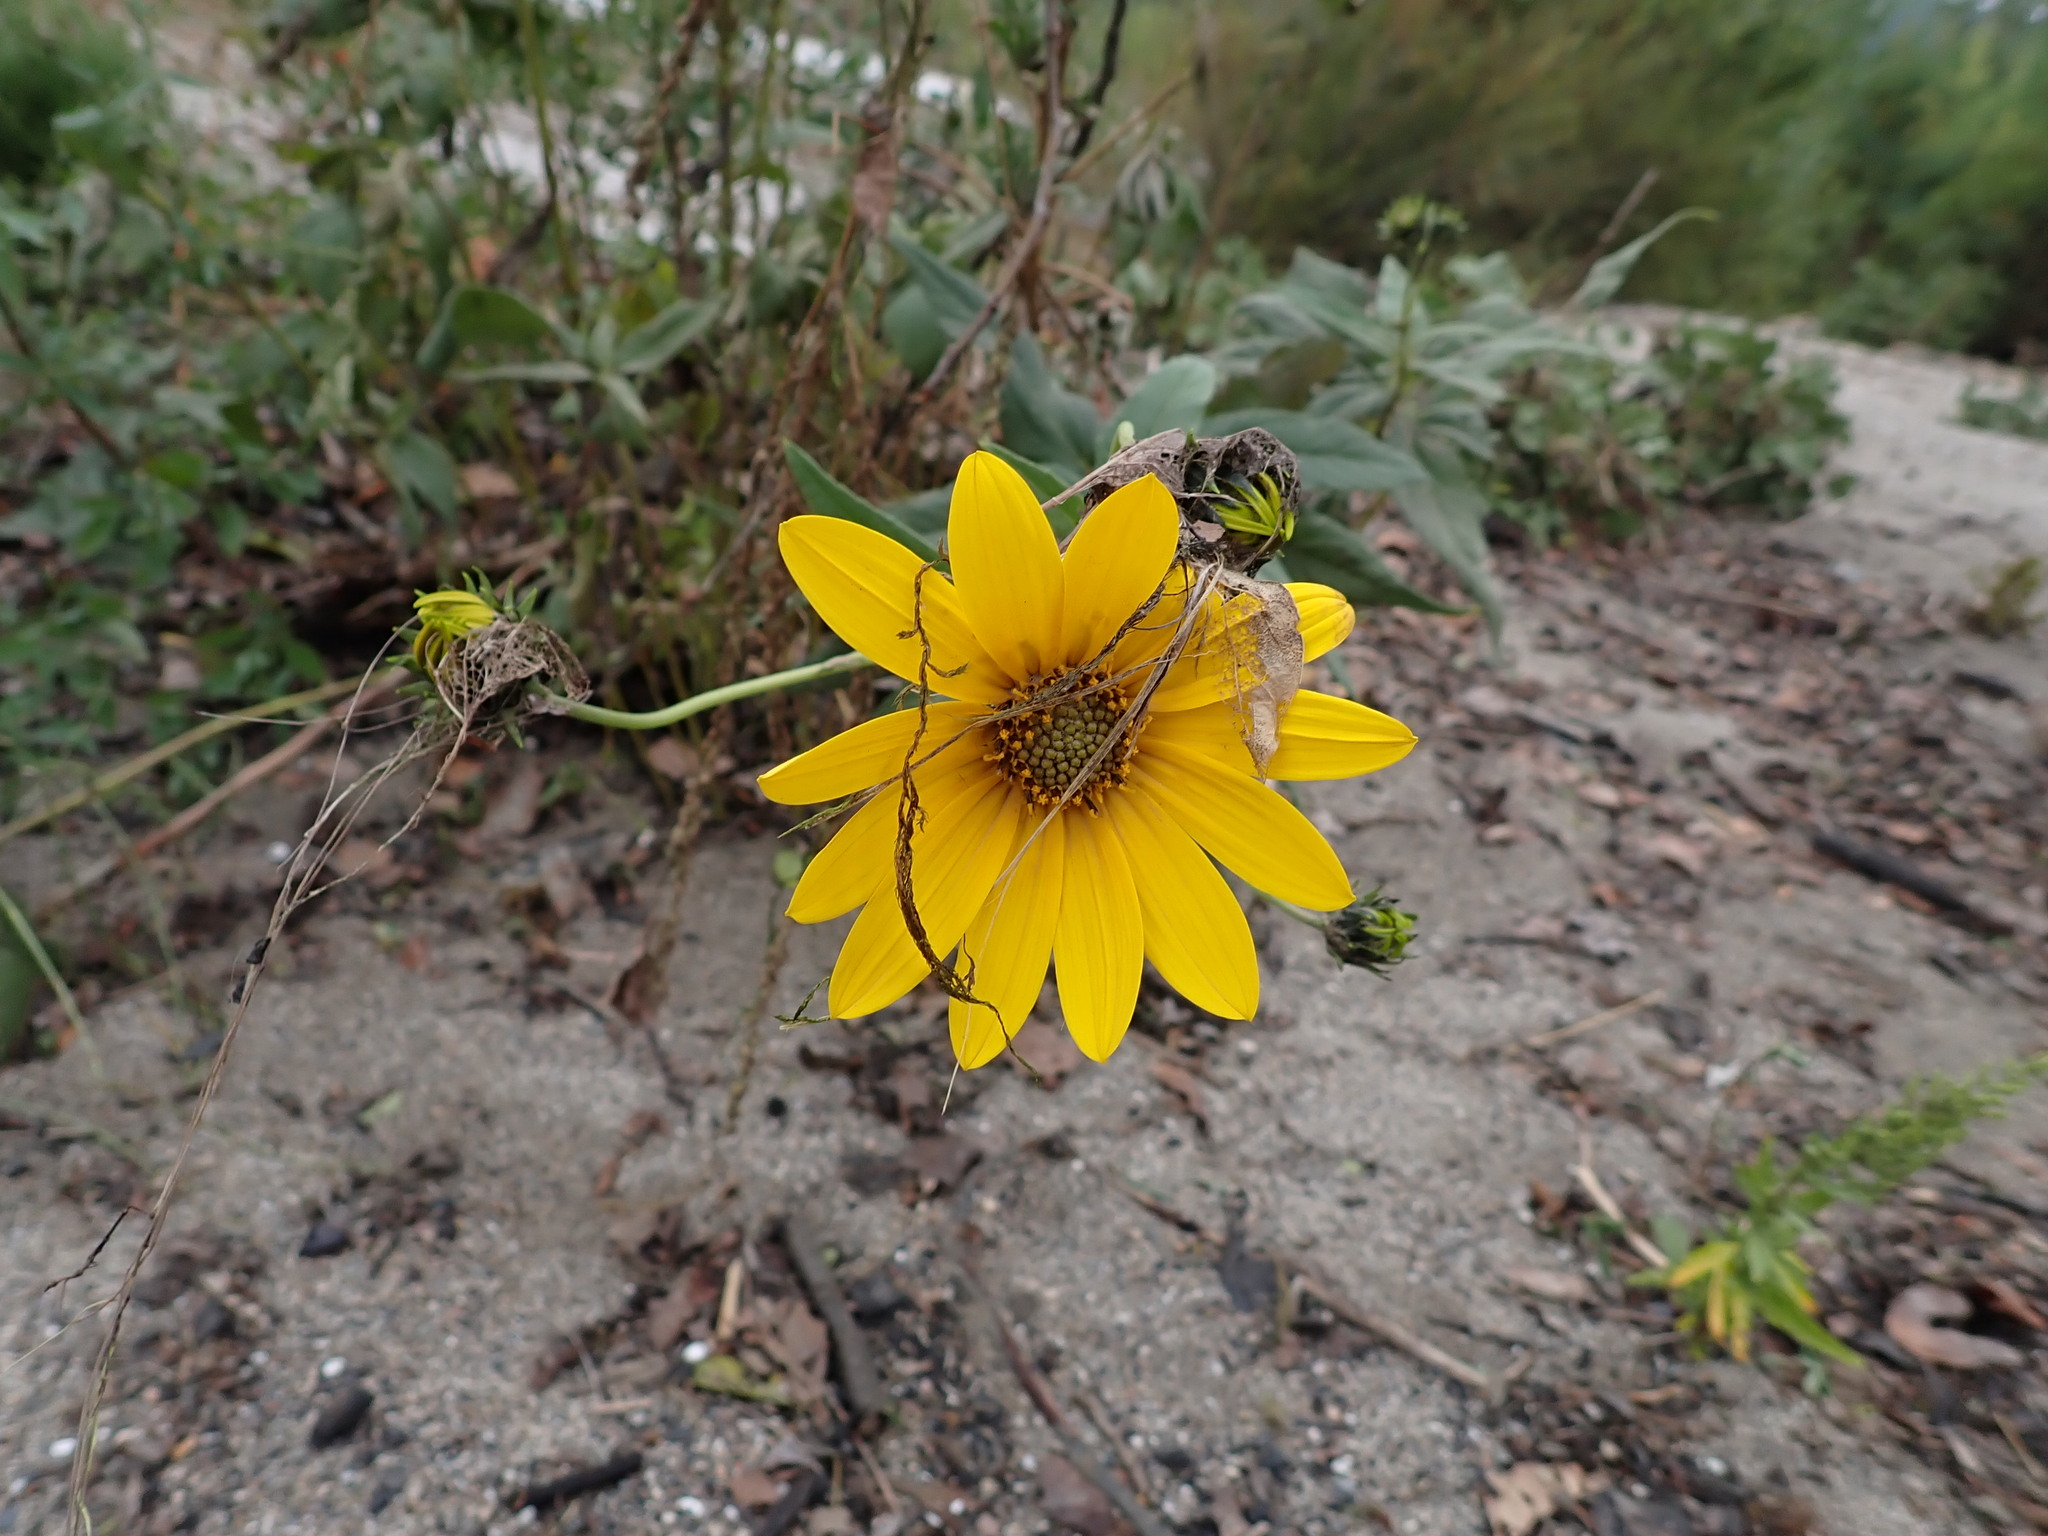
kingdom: Plantae
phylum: Tracheophyta
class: Magnoliopsida
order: Asterales
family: Asteraceae
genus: Helianthus
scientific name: Helianthus tuberosus
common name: Jerusalem artichoke
